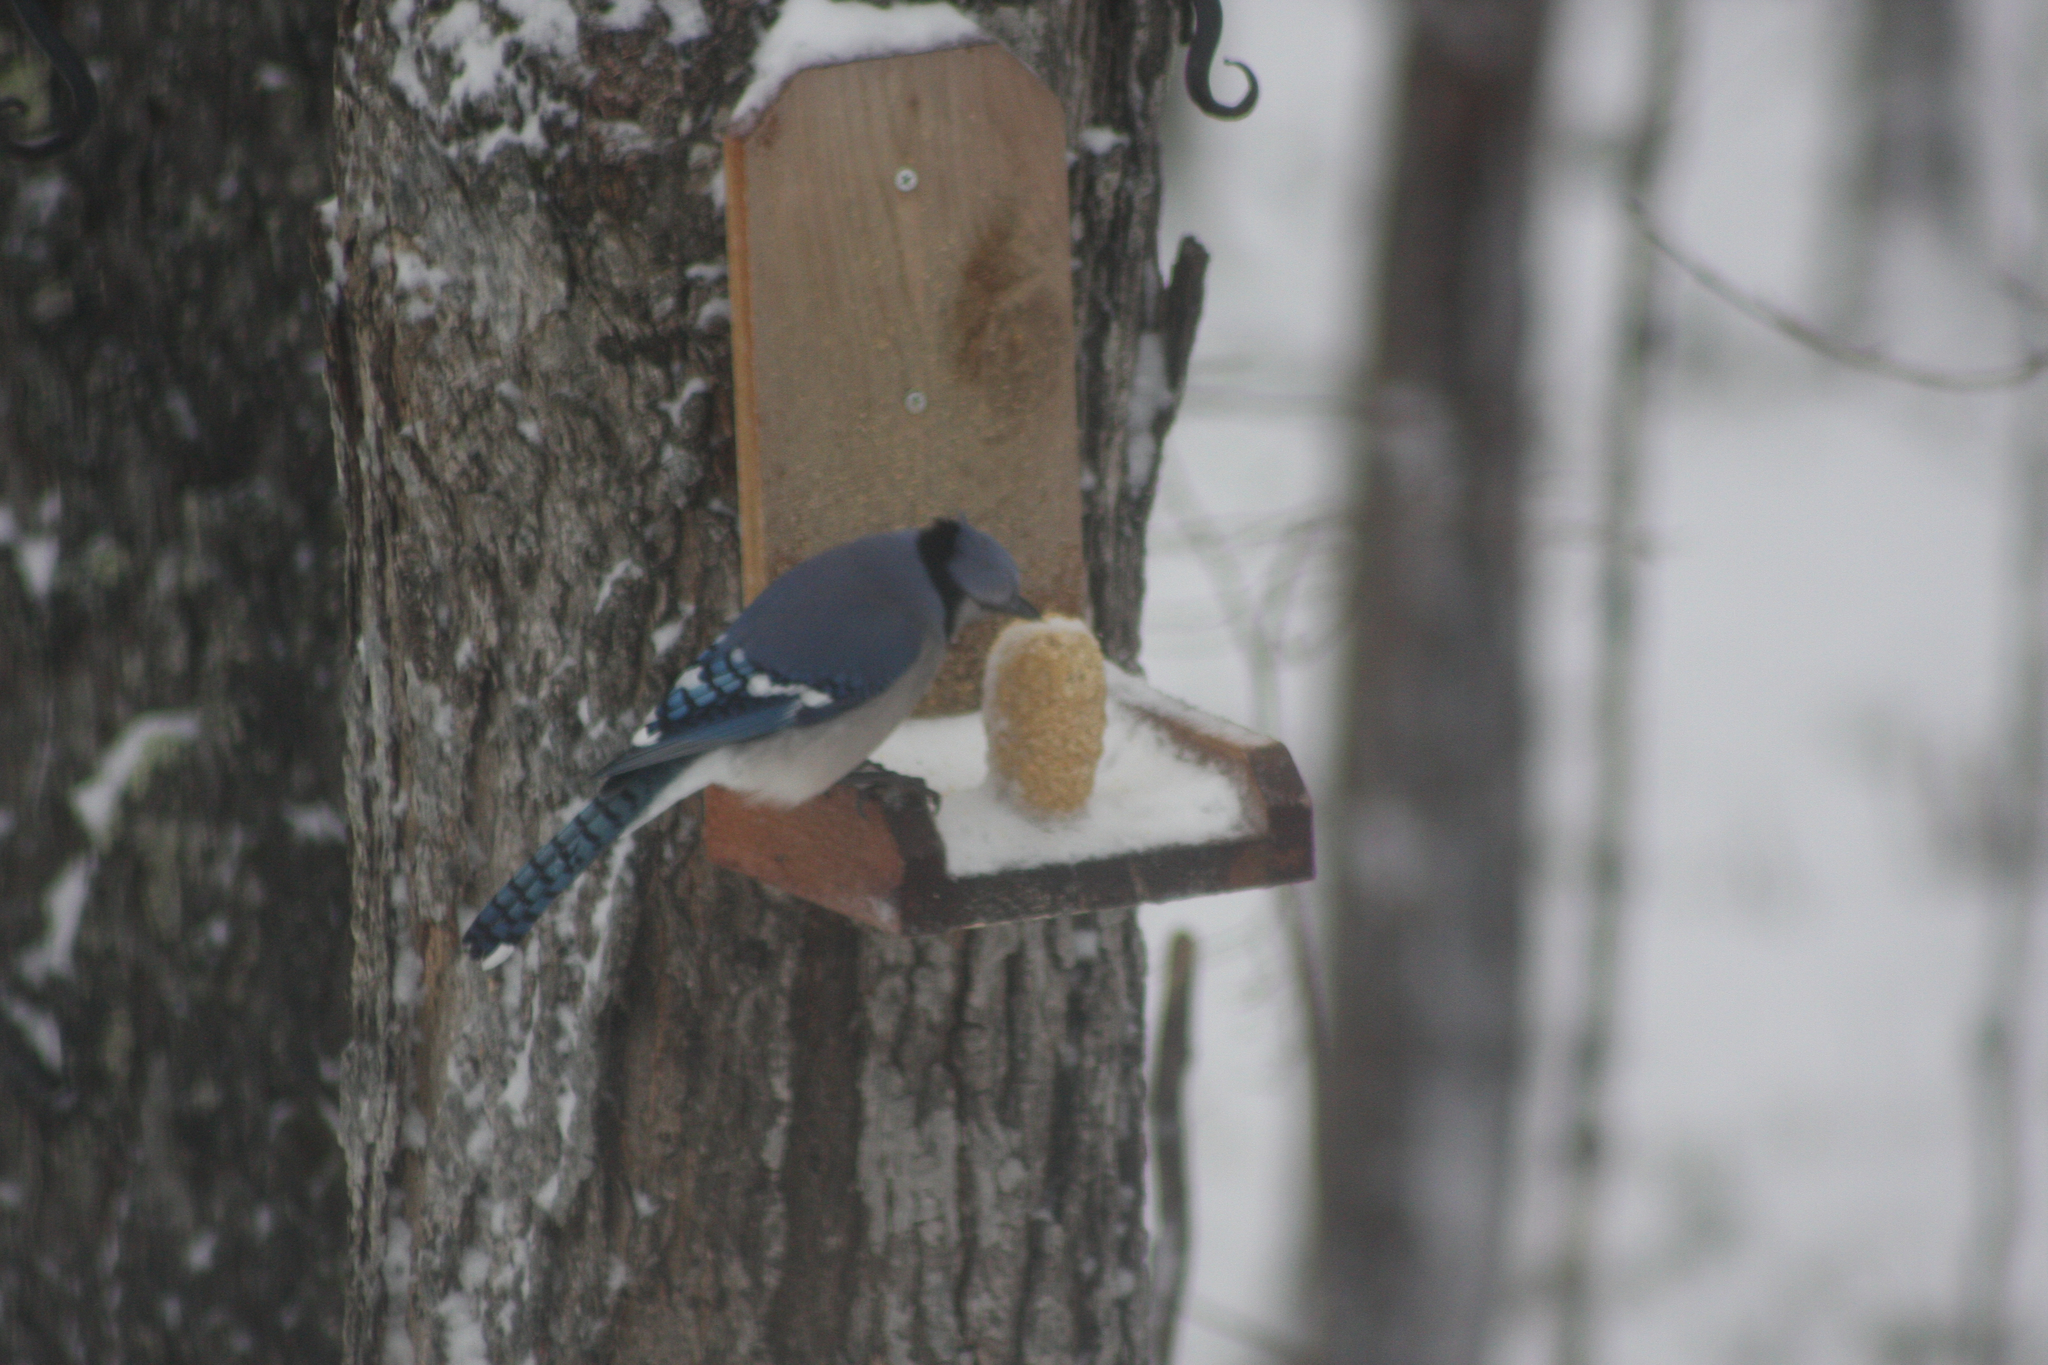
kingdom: Animalia
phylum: Chordata
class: Aves
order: Passeriformes
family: Corvidae
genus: Cyanocitta
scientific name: Cyanocitta cristata
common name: Blue jay
